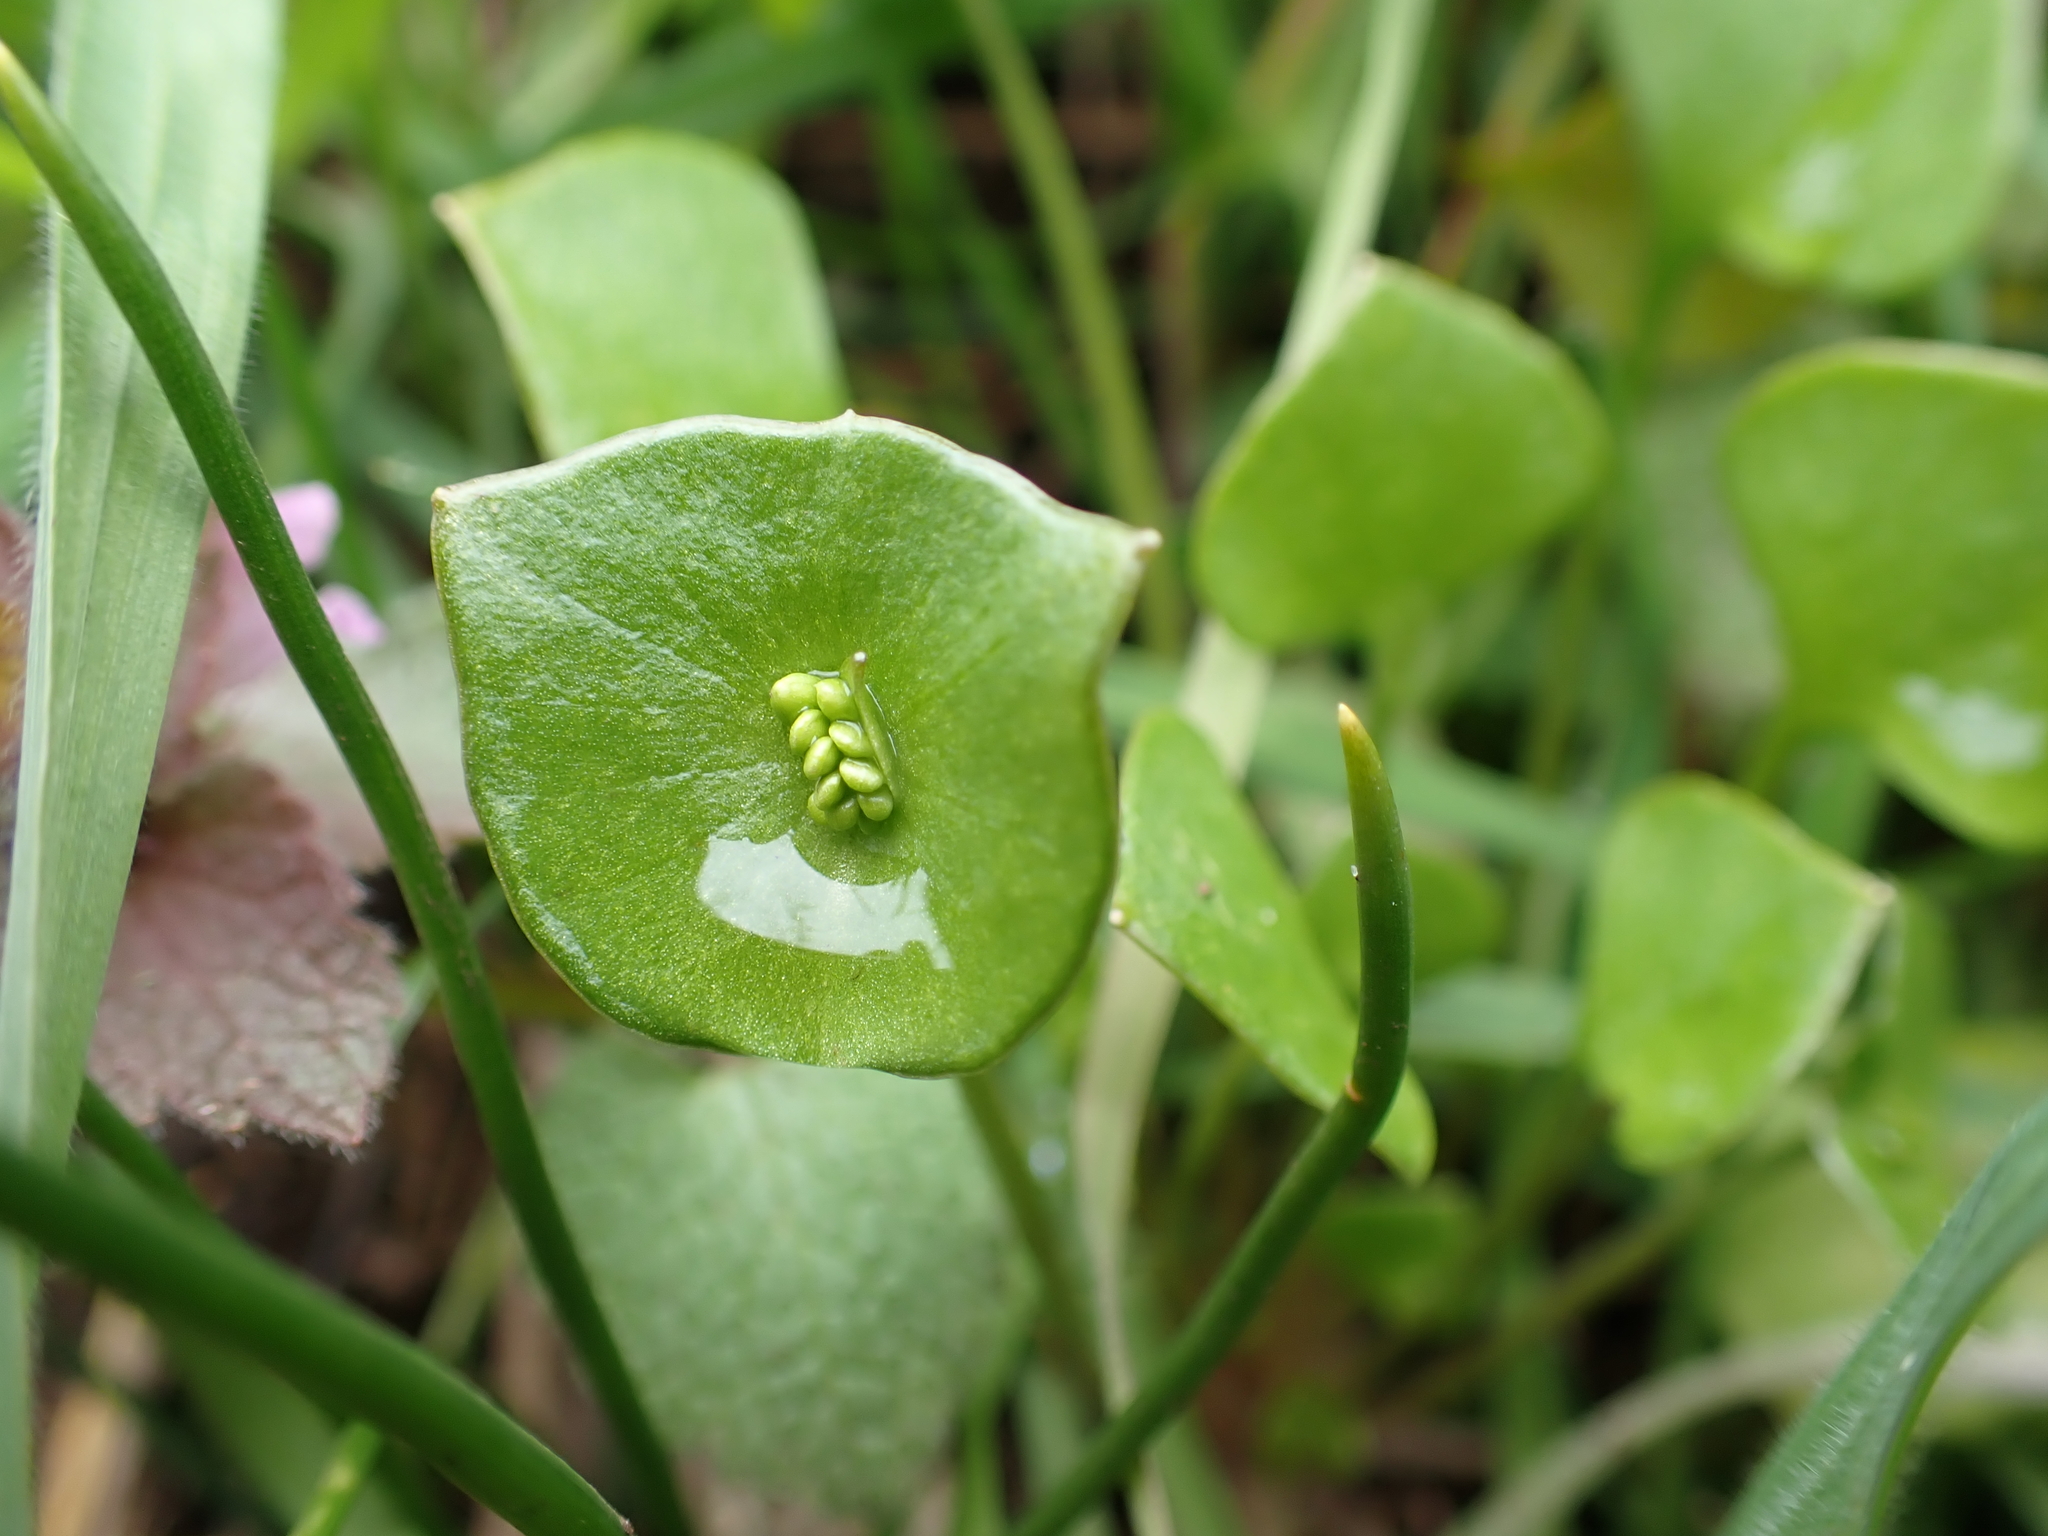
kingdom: Plantae
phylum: Tracheophyta
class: Magnoliopsida
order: Caryophyllales
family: Montiaceae
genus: Claytonia
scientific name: Claytonia perfoliata
